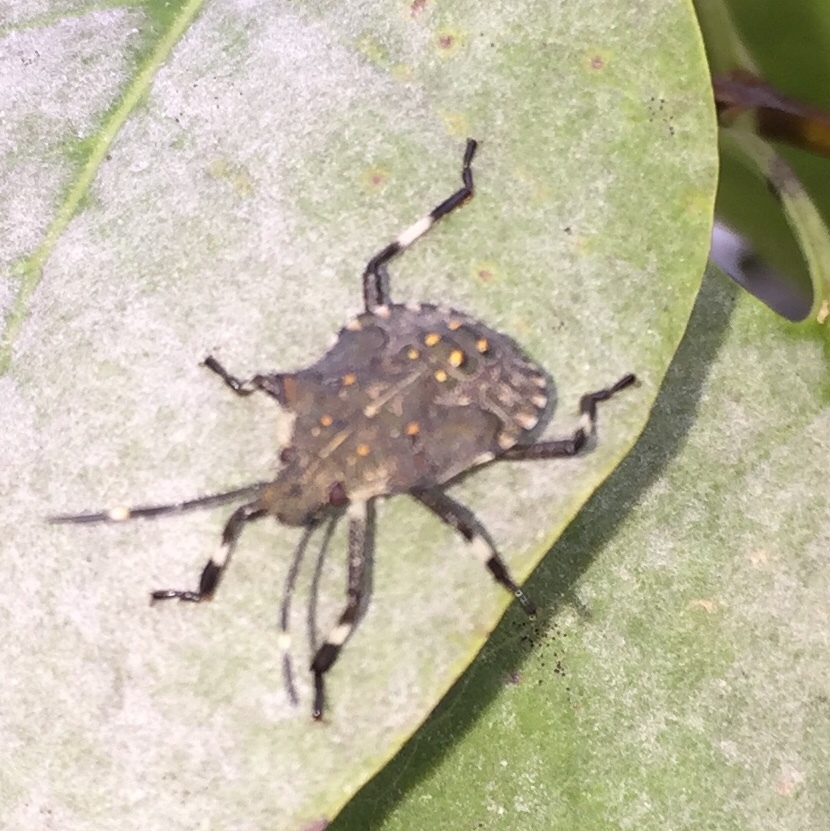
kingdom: Animalia
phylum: Arthropoda
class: Insecta
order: Hemiptera
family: Pentatomidae
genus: Halyomorpha
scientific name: Halyomorpha halys
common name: Brown marmorated stink bug
